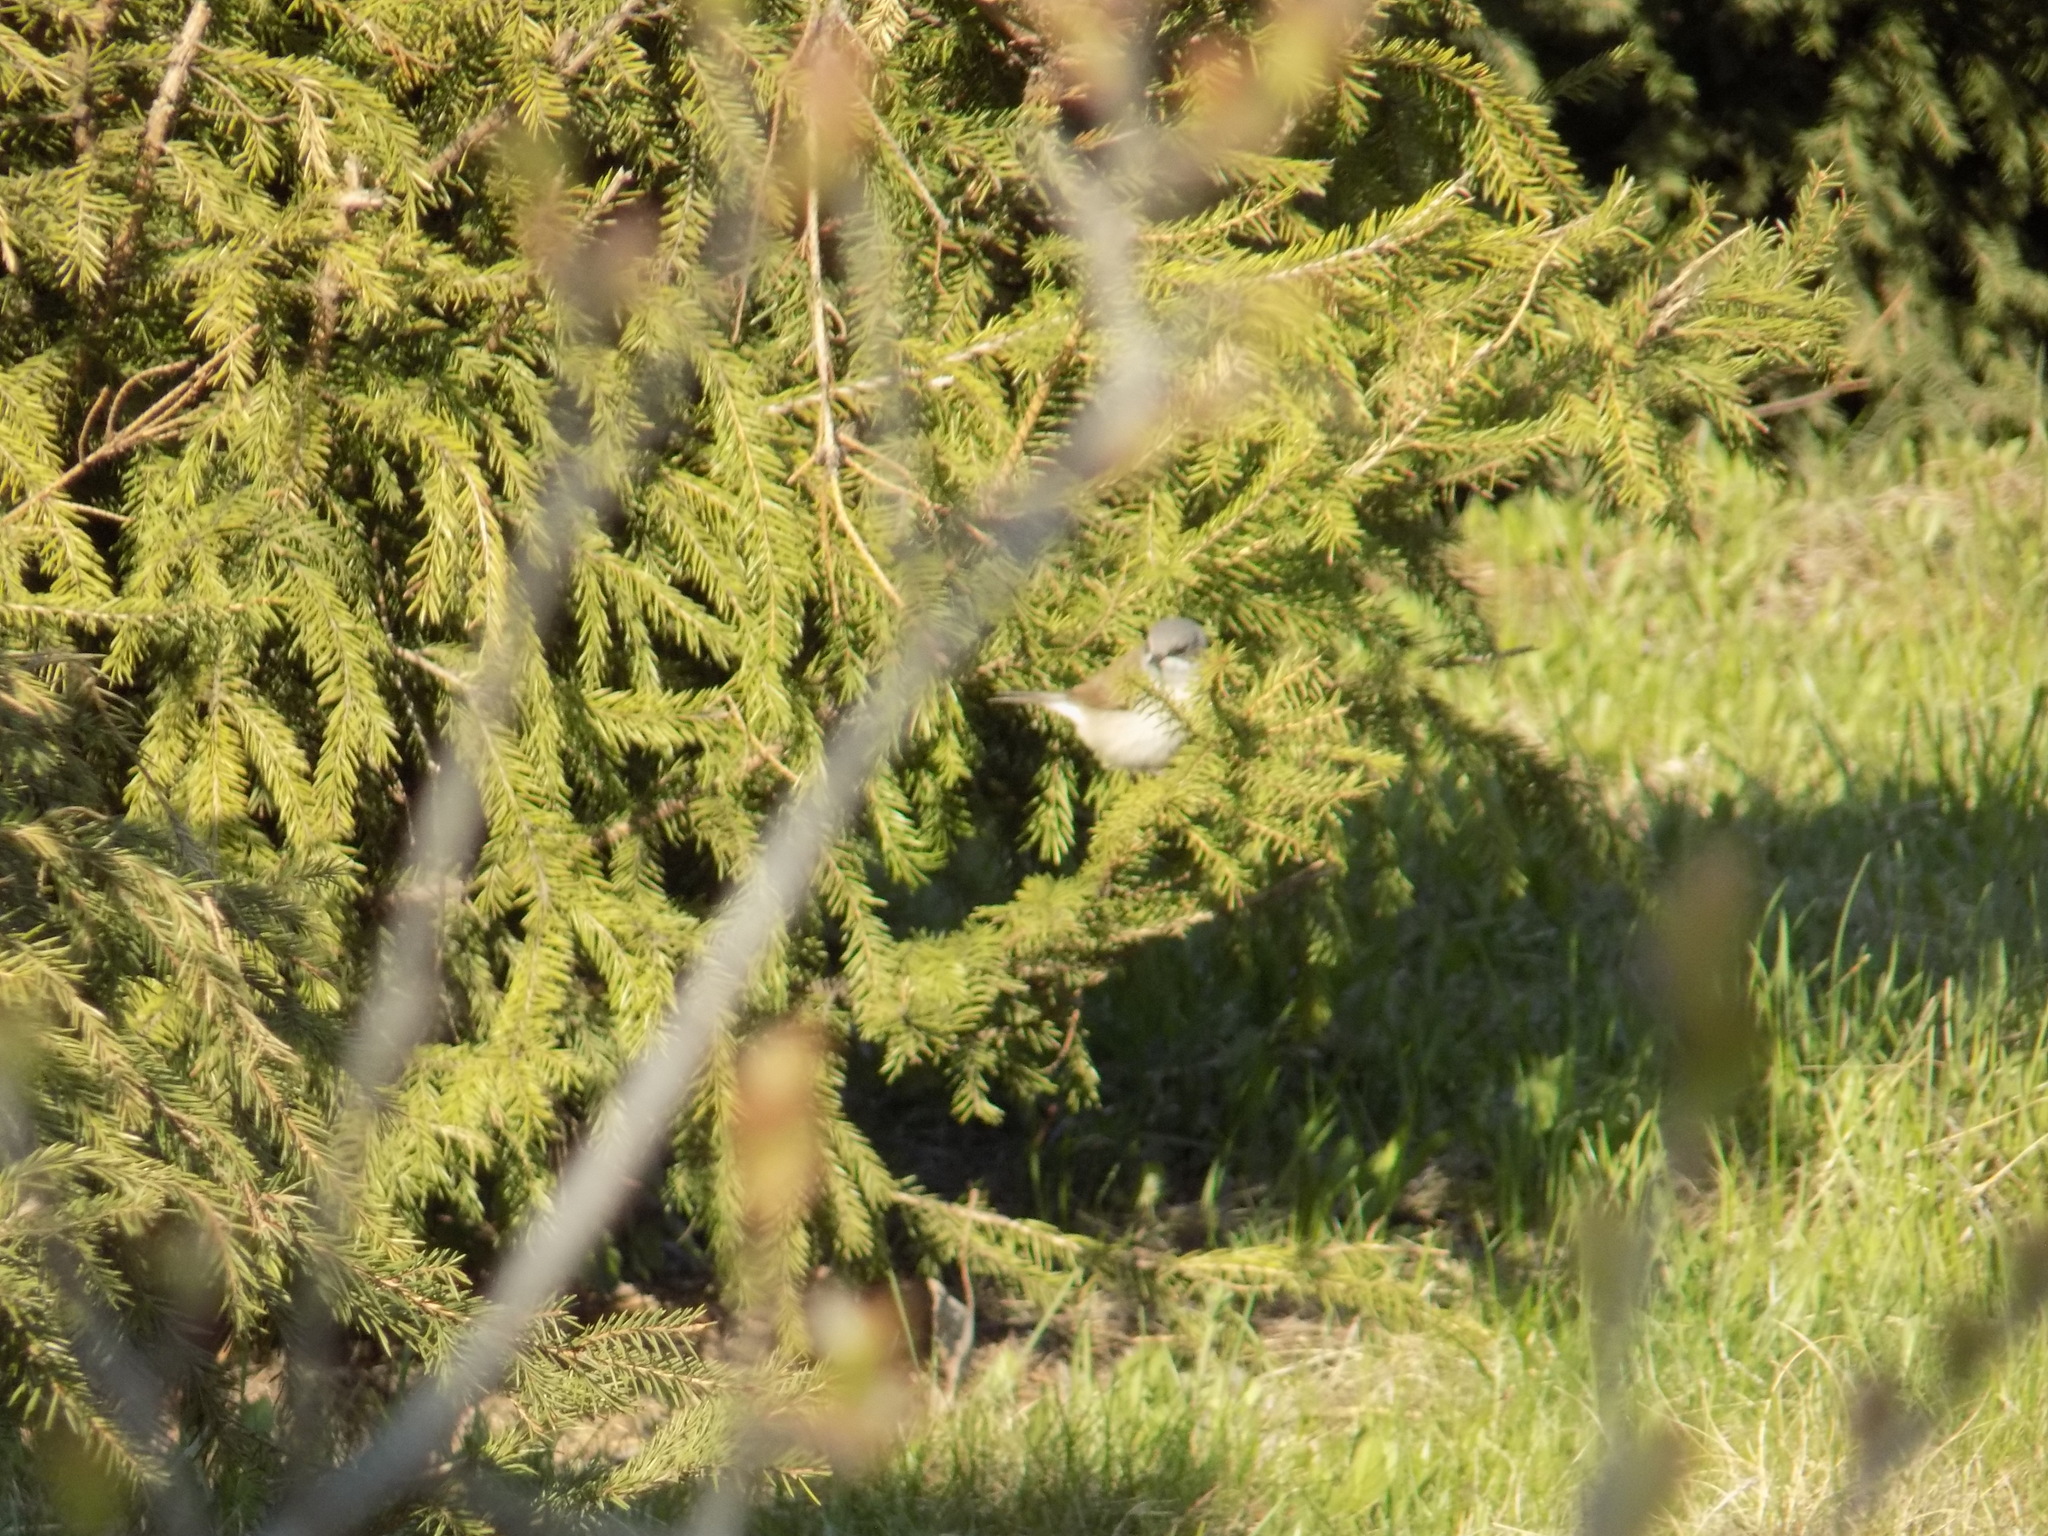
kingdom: Animalia
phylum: Chordata
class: Aves
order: Passeriformes
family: Sylviidae
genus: Sylvia
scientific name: Sylvia curruca
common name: Lesser whitethroat
